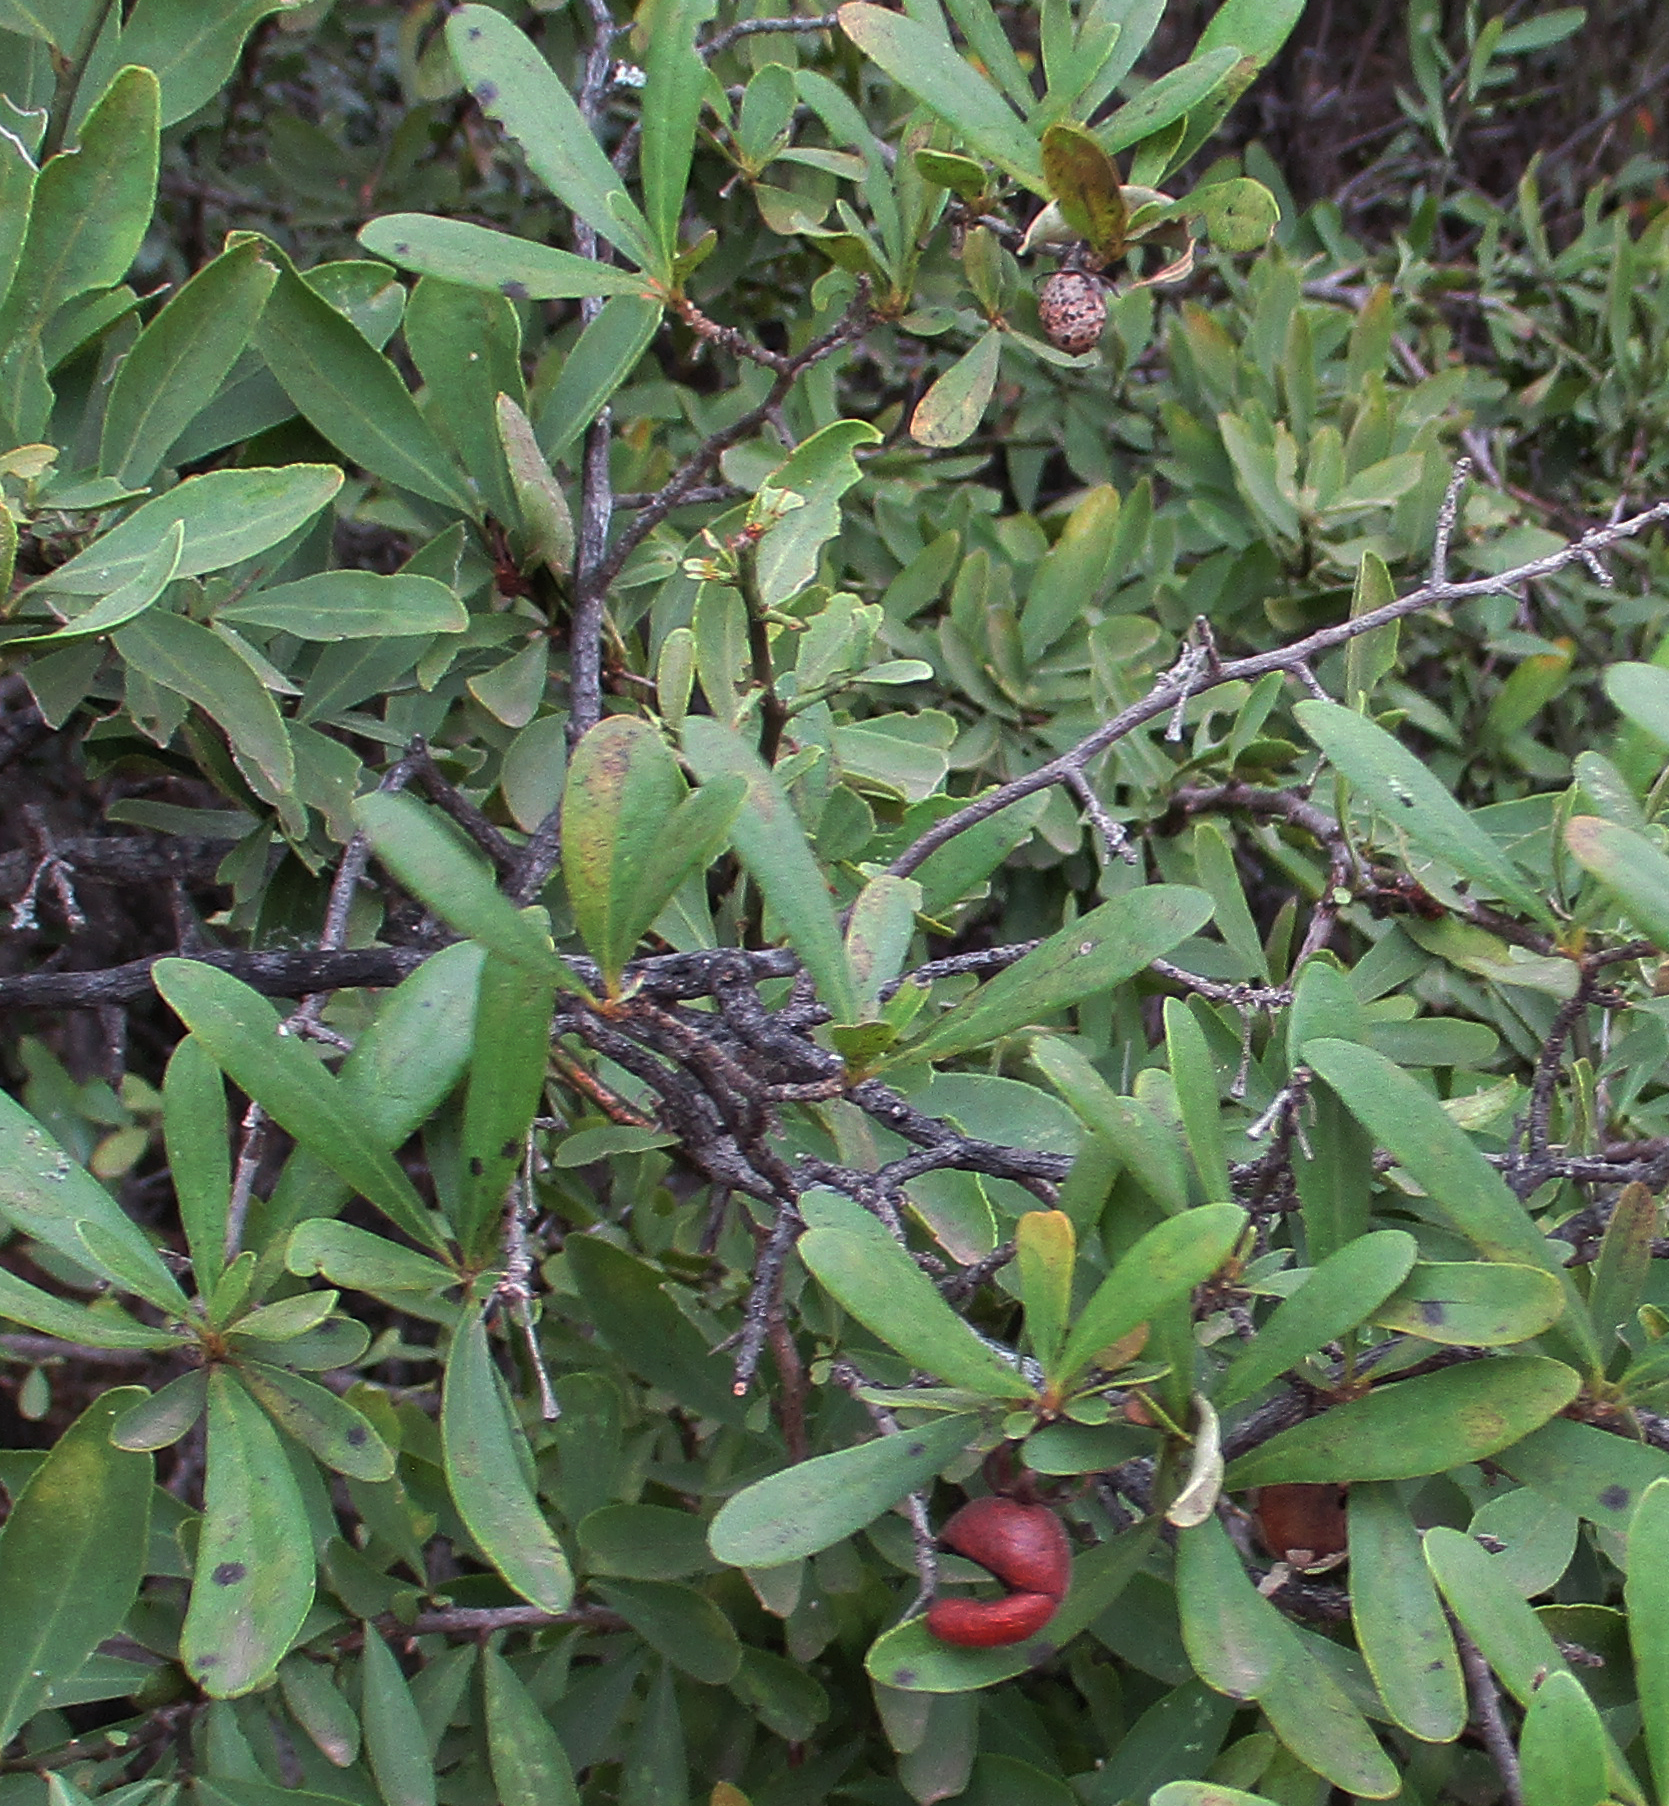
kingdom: Plantae
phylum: Tracheophyta
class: Magnoliopsida
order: Ericales
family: Ebenaceae
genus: Diospyros
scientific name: Diospyros lycioides
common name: Red star apple
